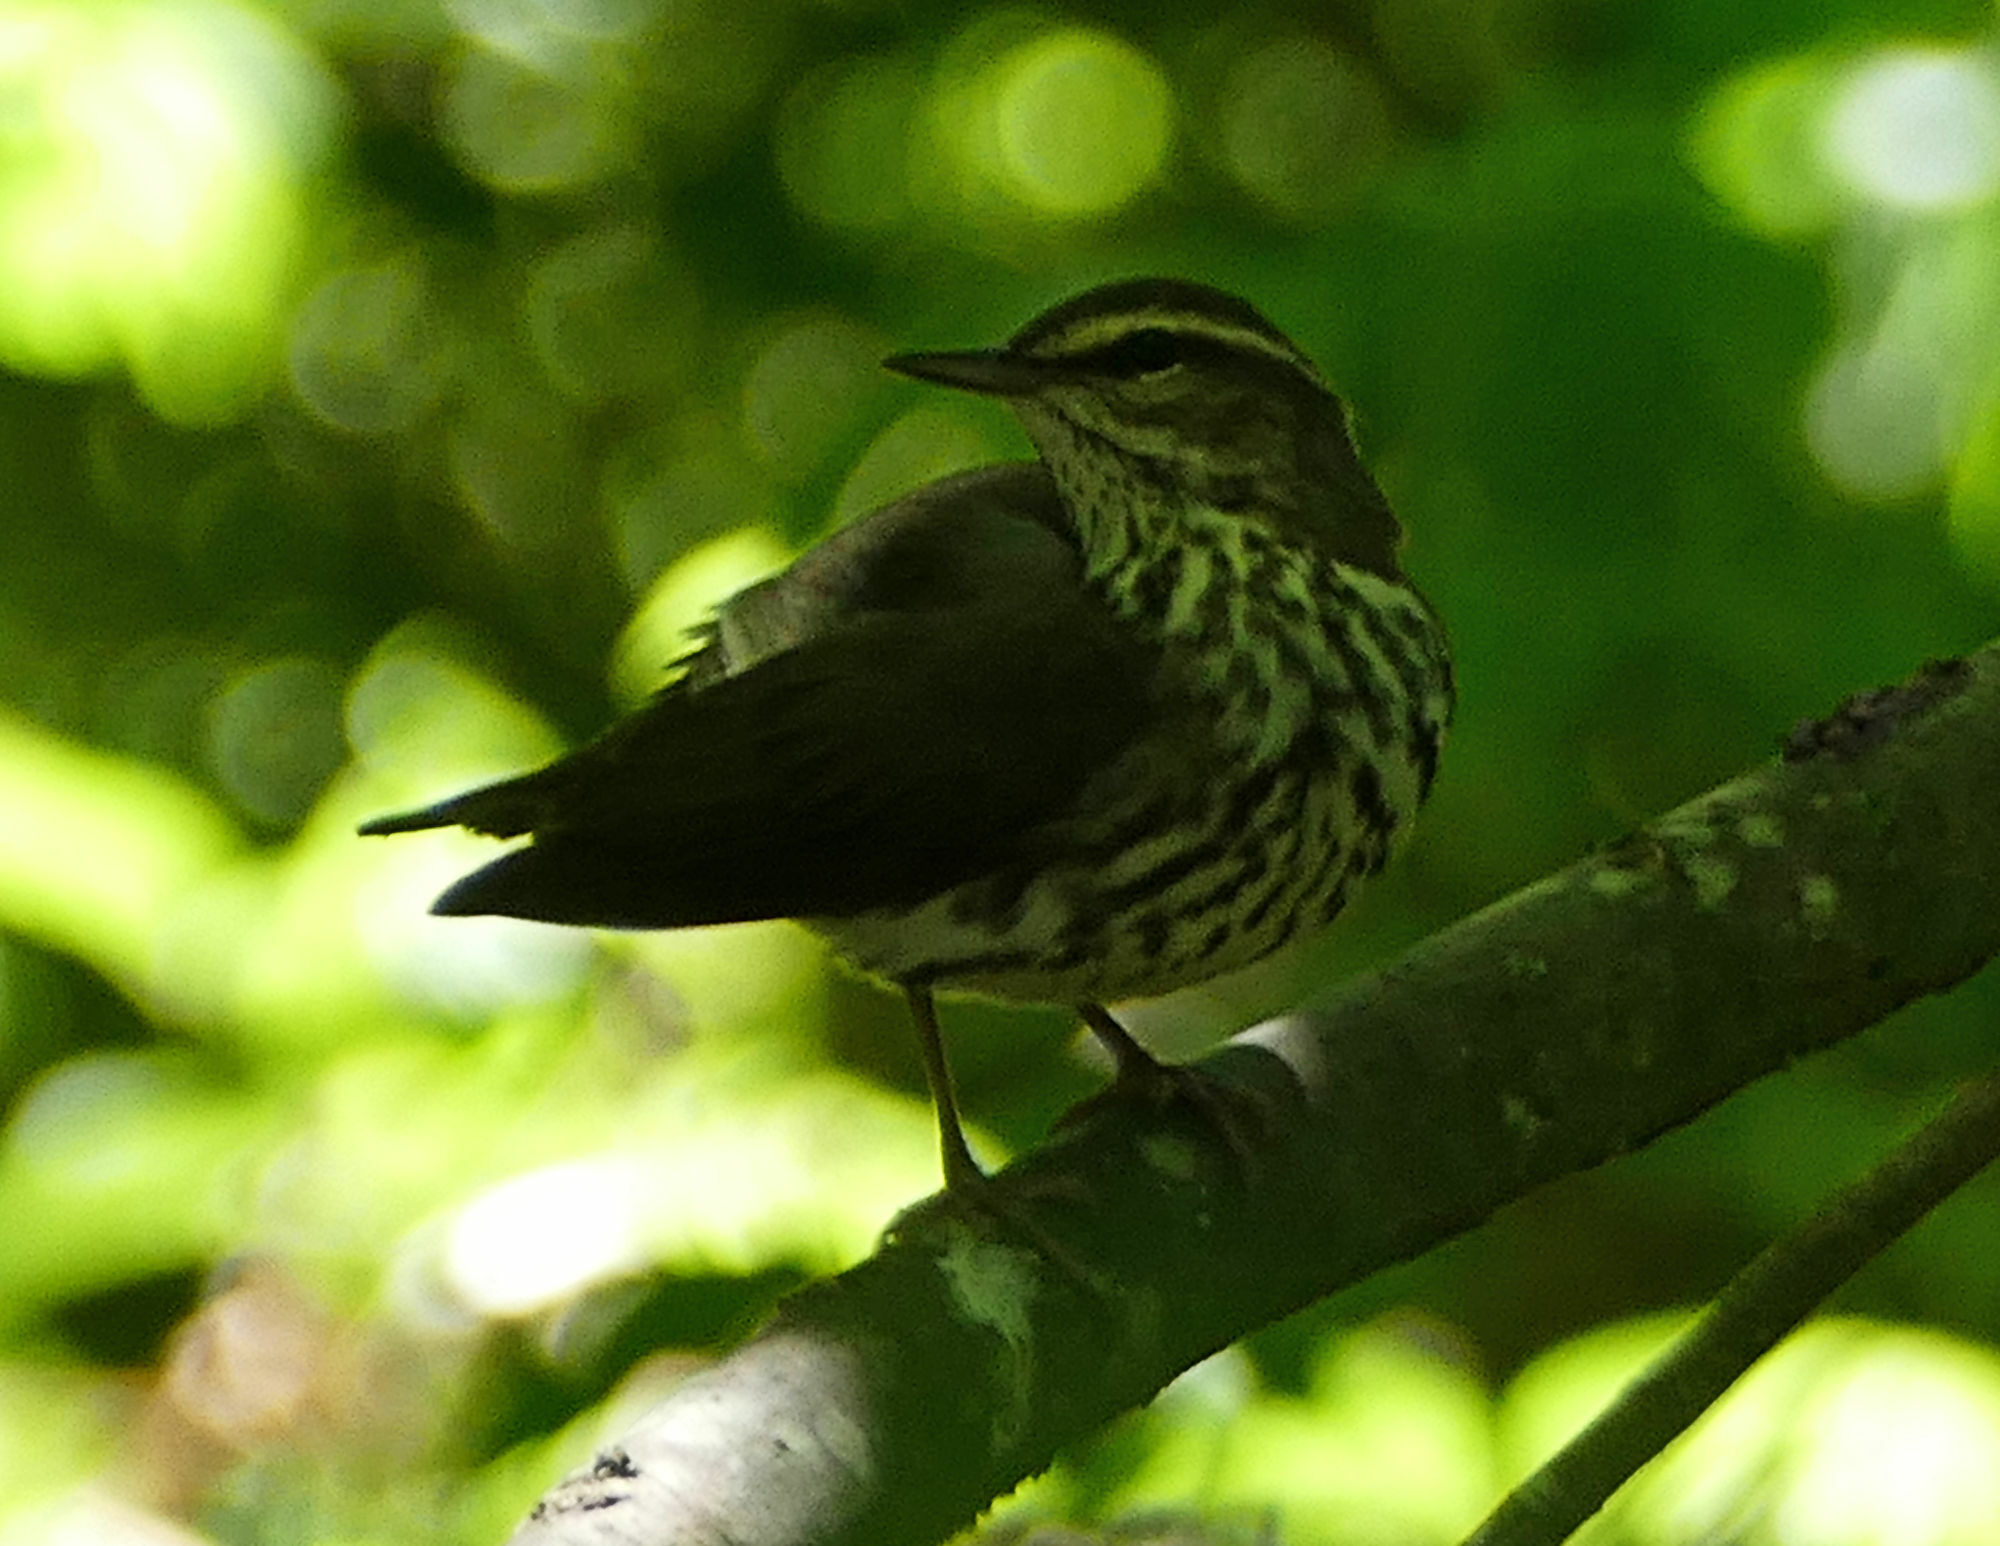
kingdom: Animalia
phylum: Chordata
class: Aves
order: Passeriformes
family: Parulidae
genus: Parkesia
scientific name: Parkesia noveboracensis
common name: Northern waterthrush
